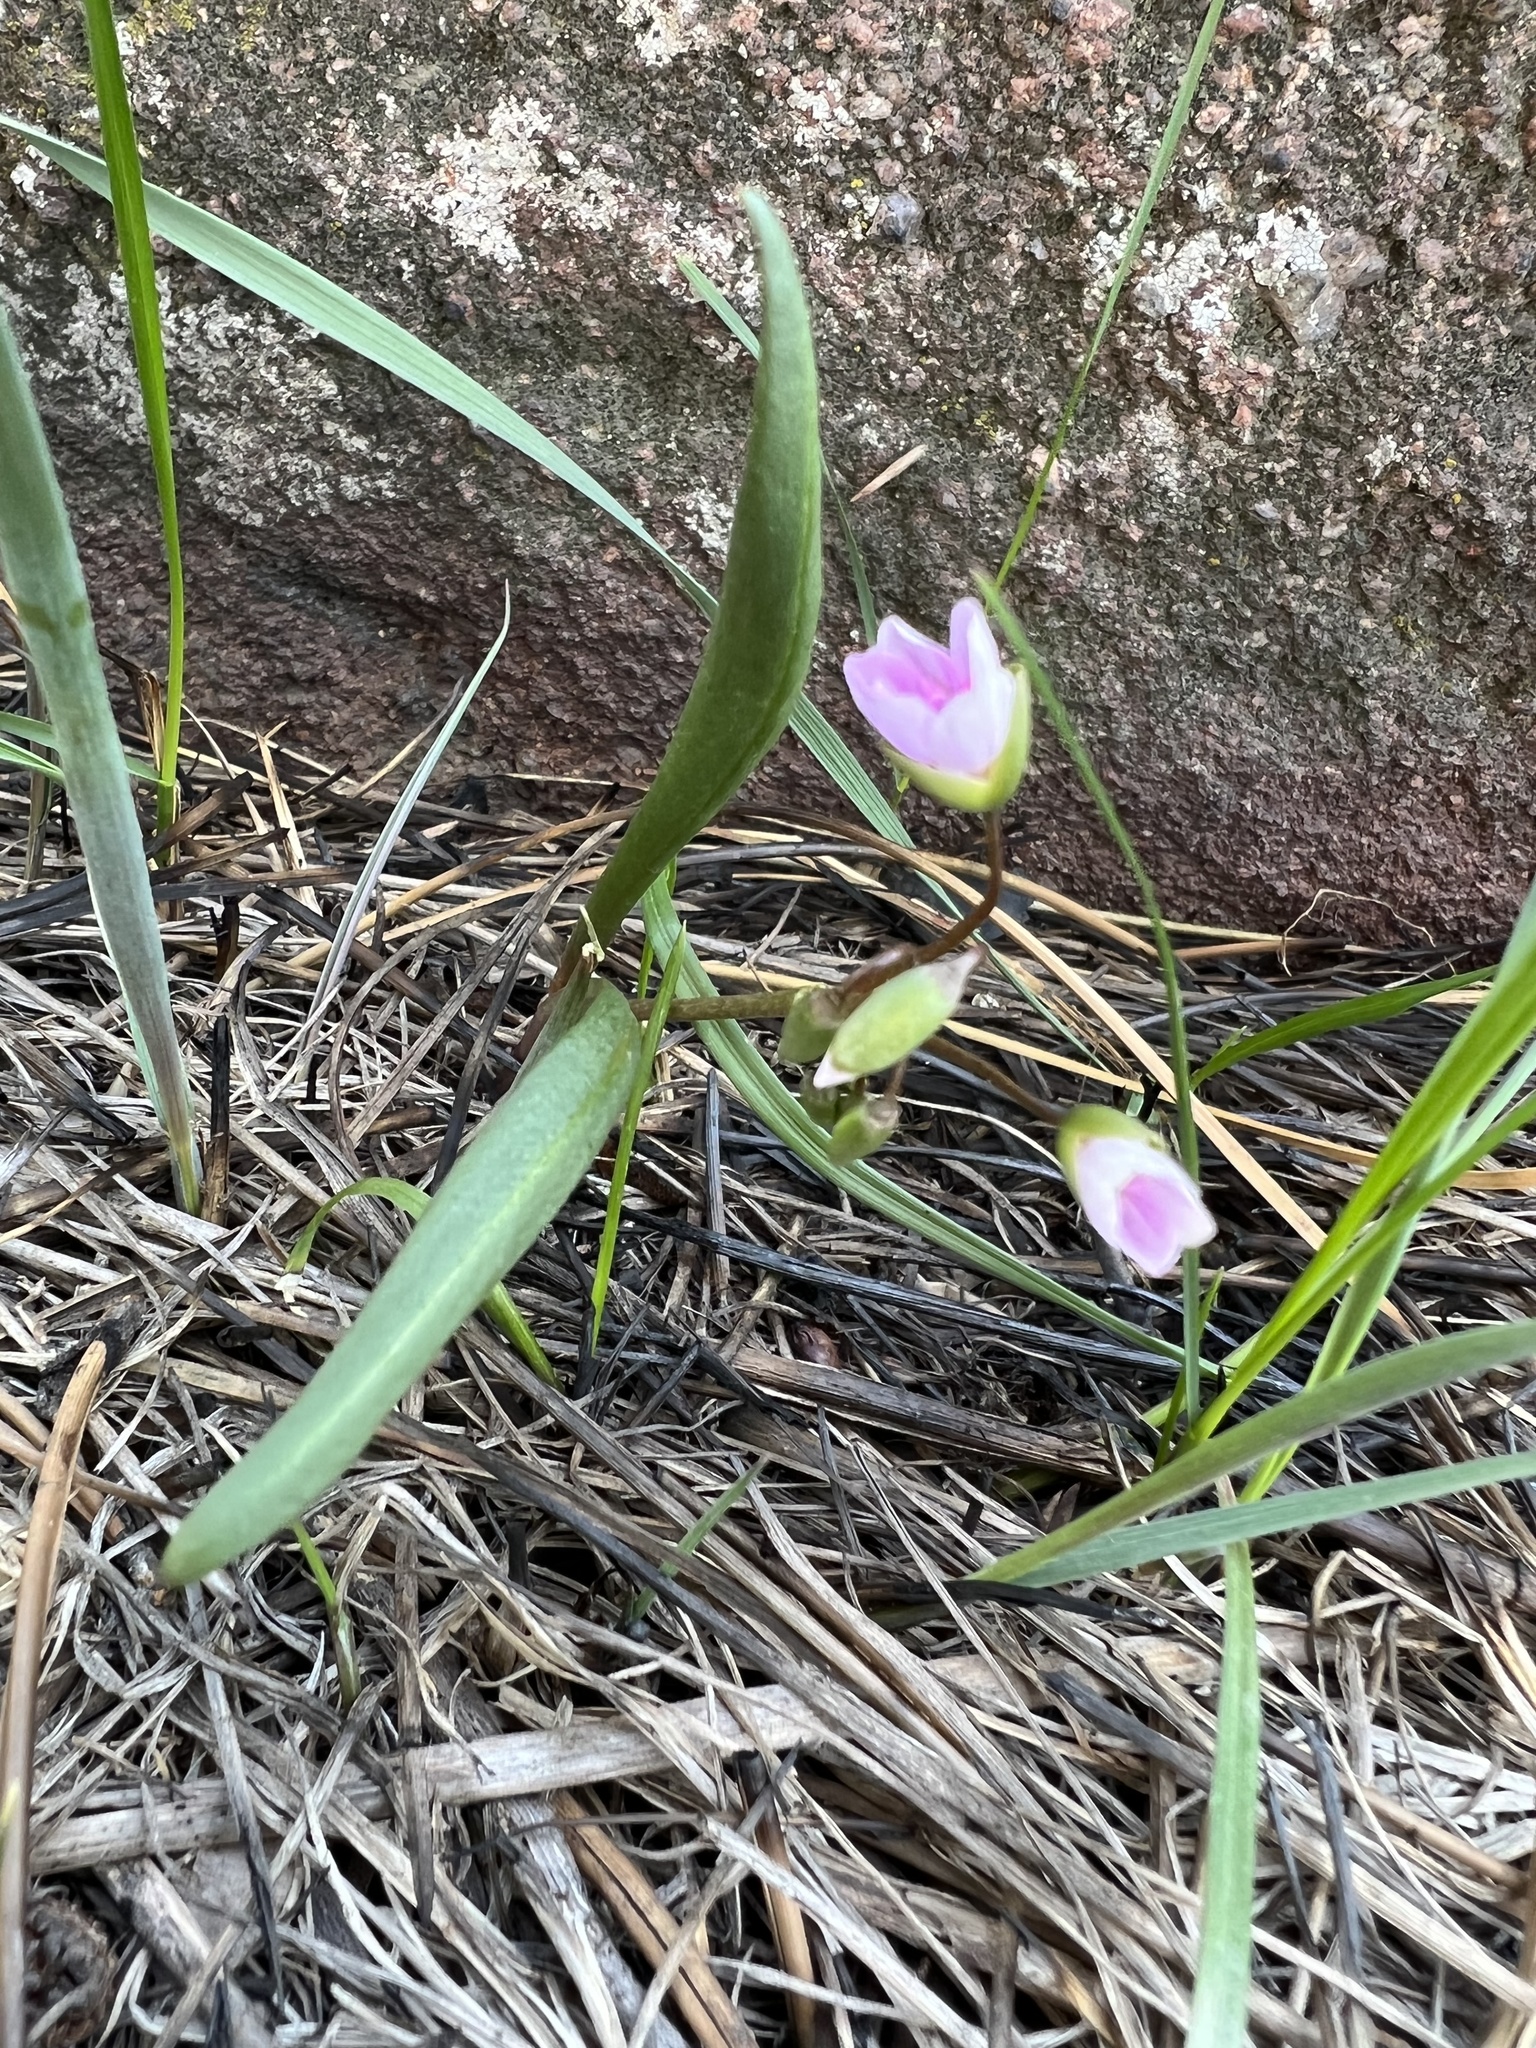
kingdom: Plantae
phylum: Tracheophyta
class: Magnoliopsida
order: Caryophyllales
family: Montiaceae
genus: Claytonia
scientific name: Claytonia rosea
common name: Rocky mountain spring-beauty
